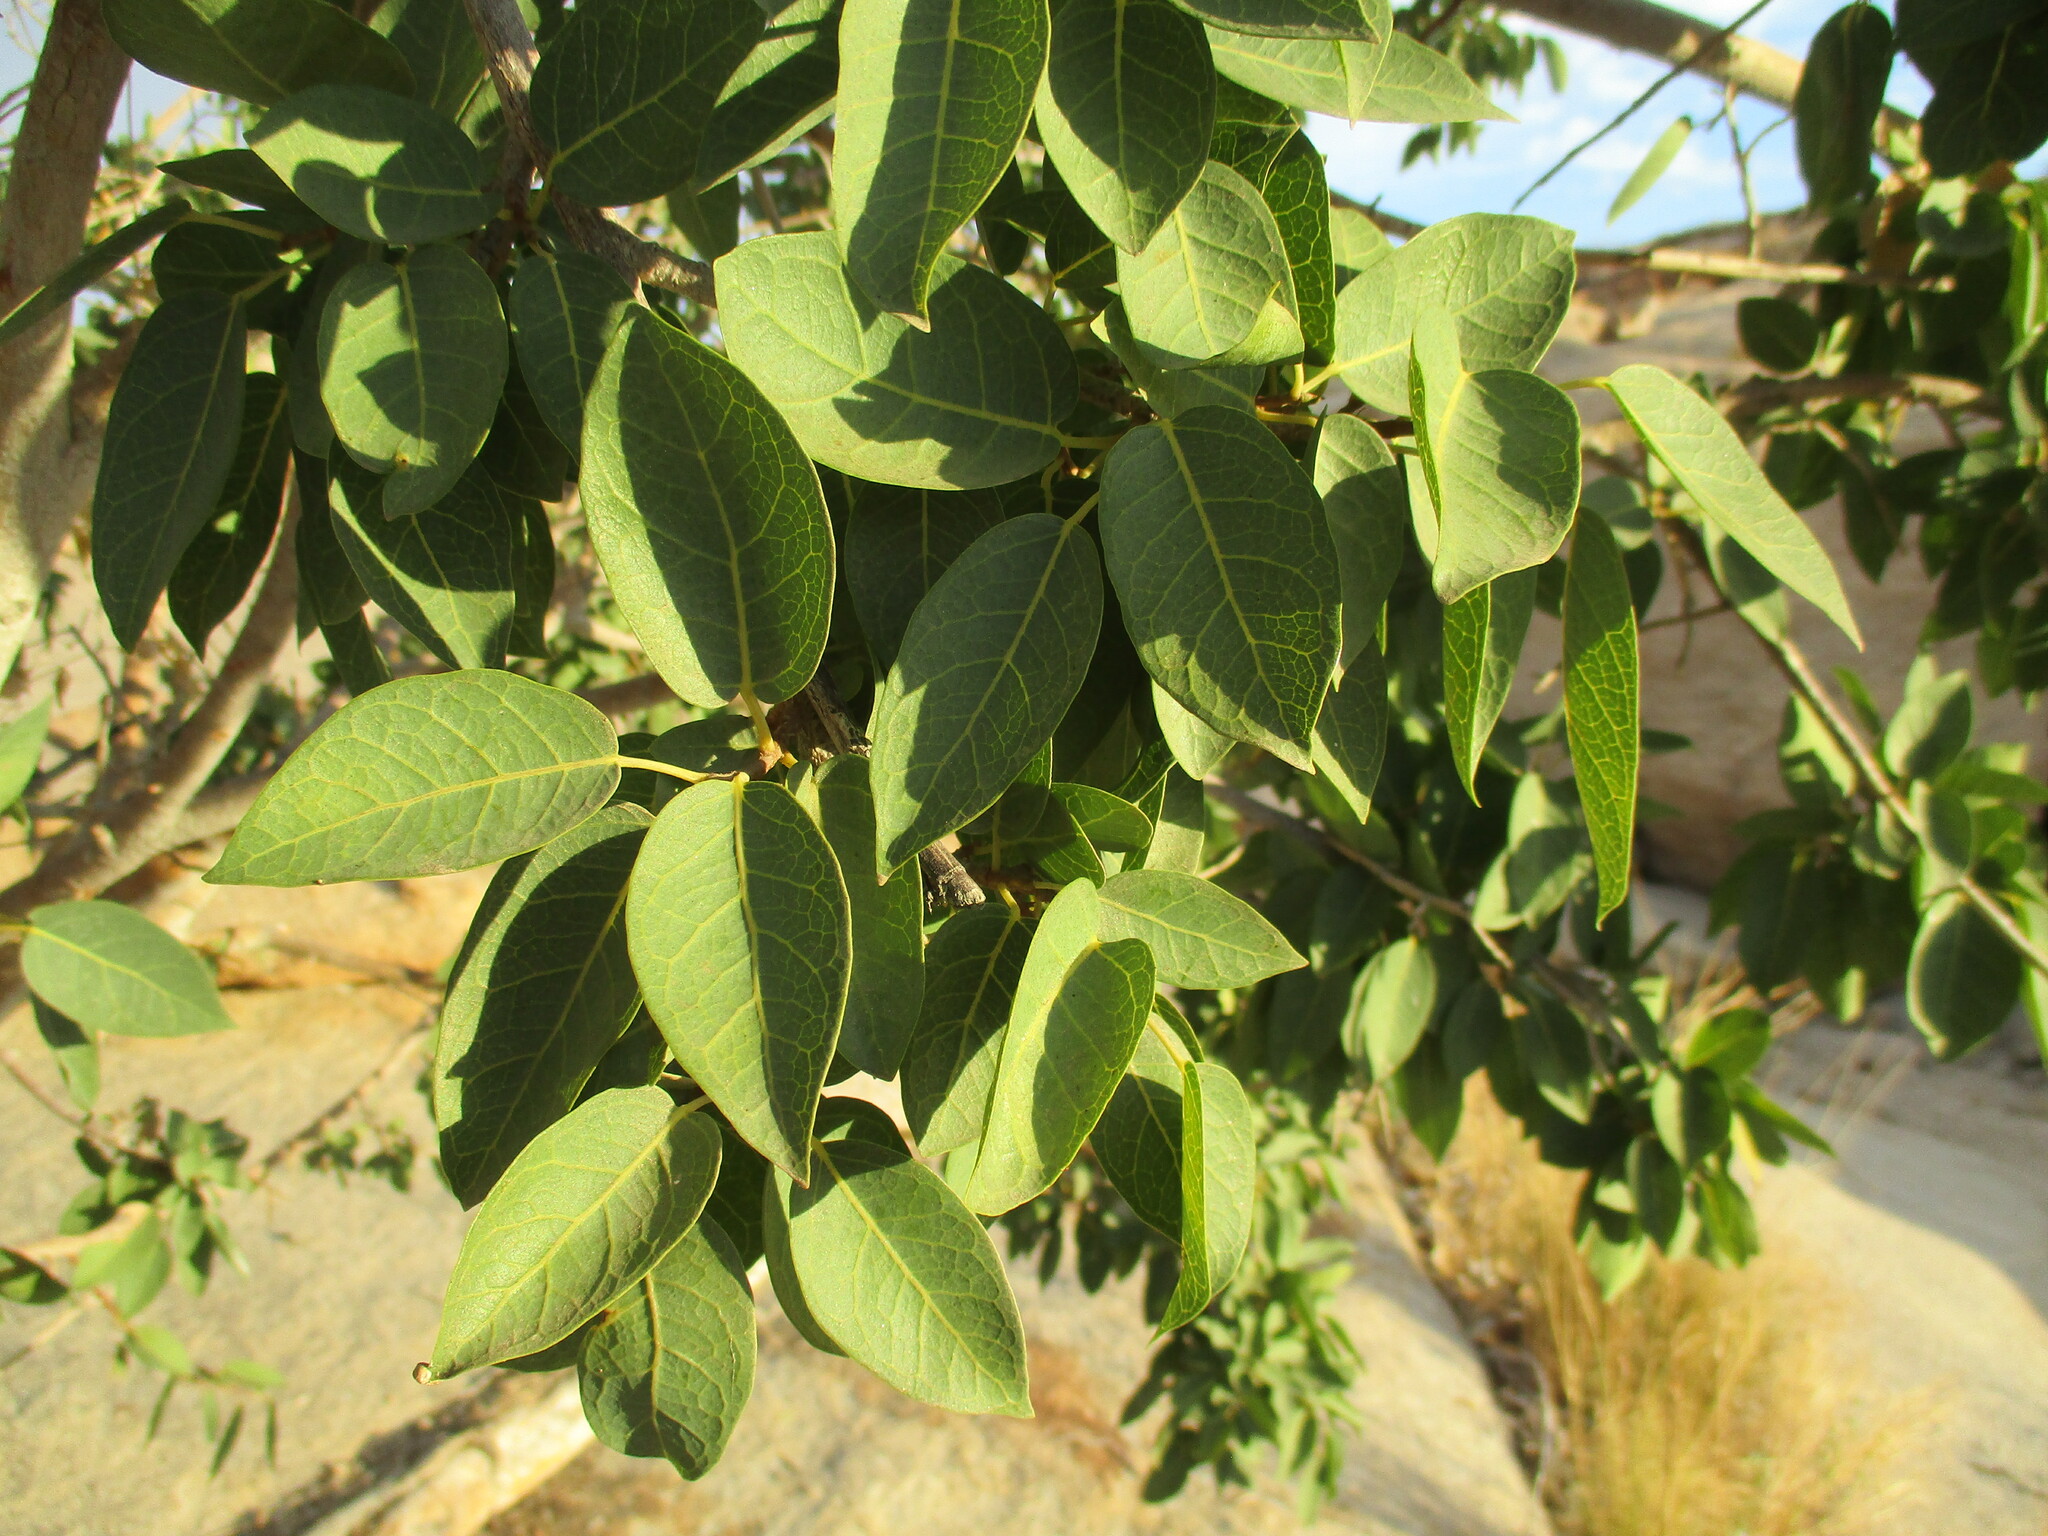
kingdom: Plantae
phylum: Tracheophyta
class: Magnoliopsida
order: Rosales
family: Moraceae
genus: Ficus
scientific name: Ficus cordata
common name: Namaqua rock fig
